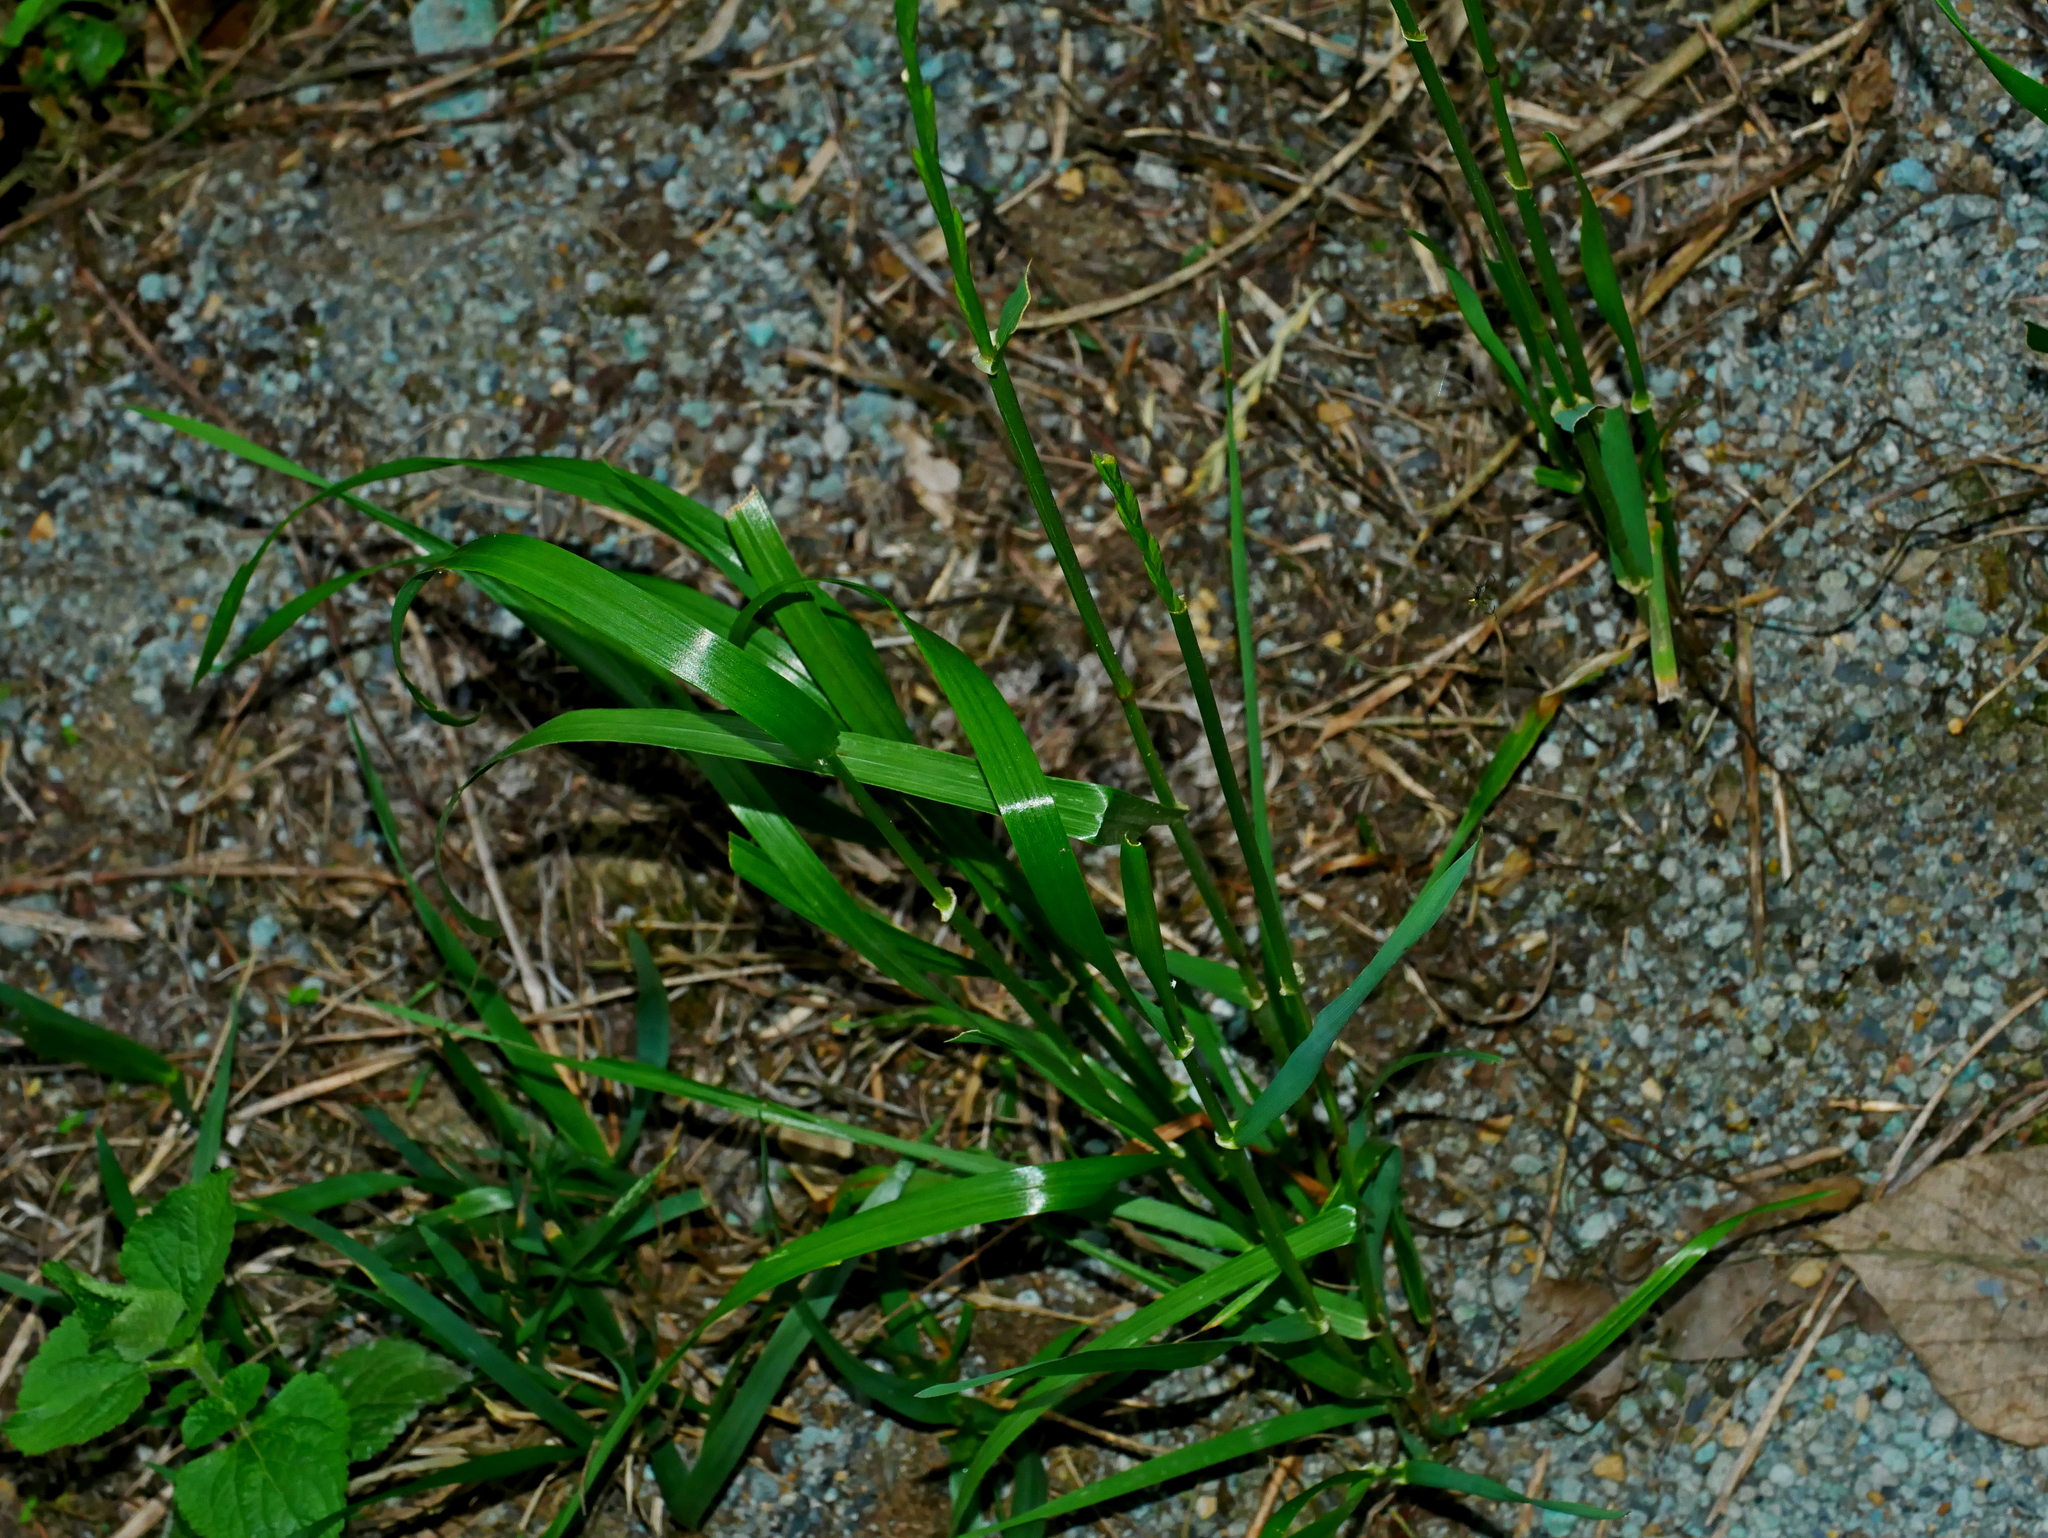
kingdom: Plantae
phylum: Tracheophyta
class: Liliopsida
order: Poales
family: Poaceae
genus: Lolium
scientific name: Lolium multiflorum
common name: Annual ryegrass
